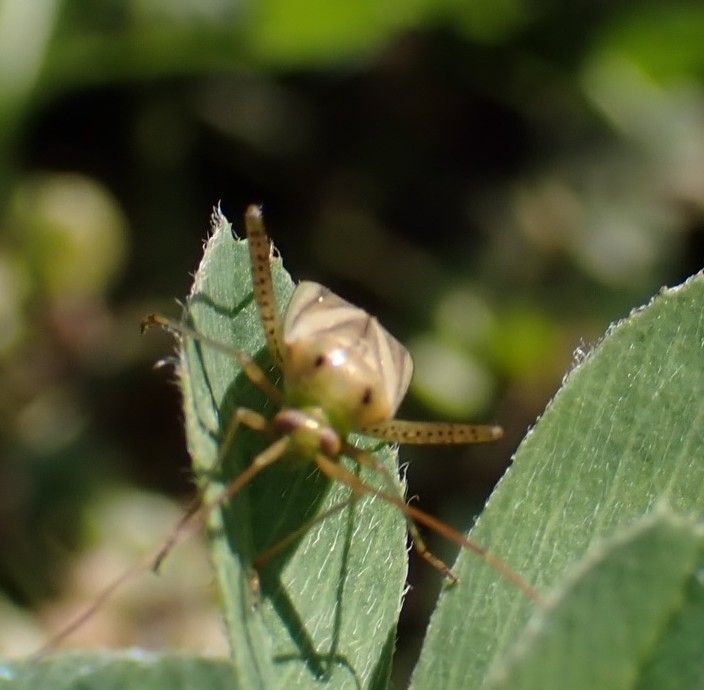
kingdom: Animalia
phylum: Arthropoda
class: Insecta
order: Hemiptera
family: Miridae
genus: Adelphocoris
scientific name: Adelphocoris lineolatus
